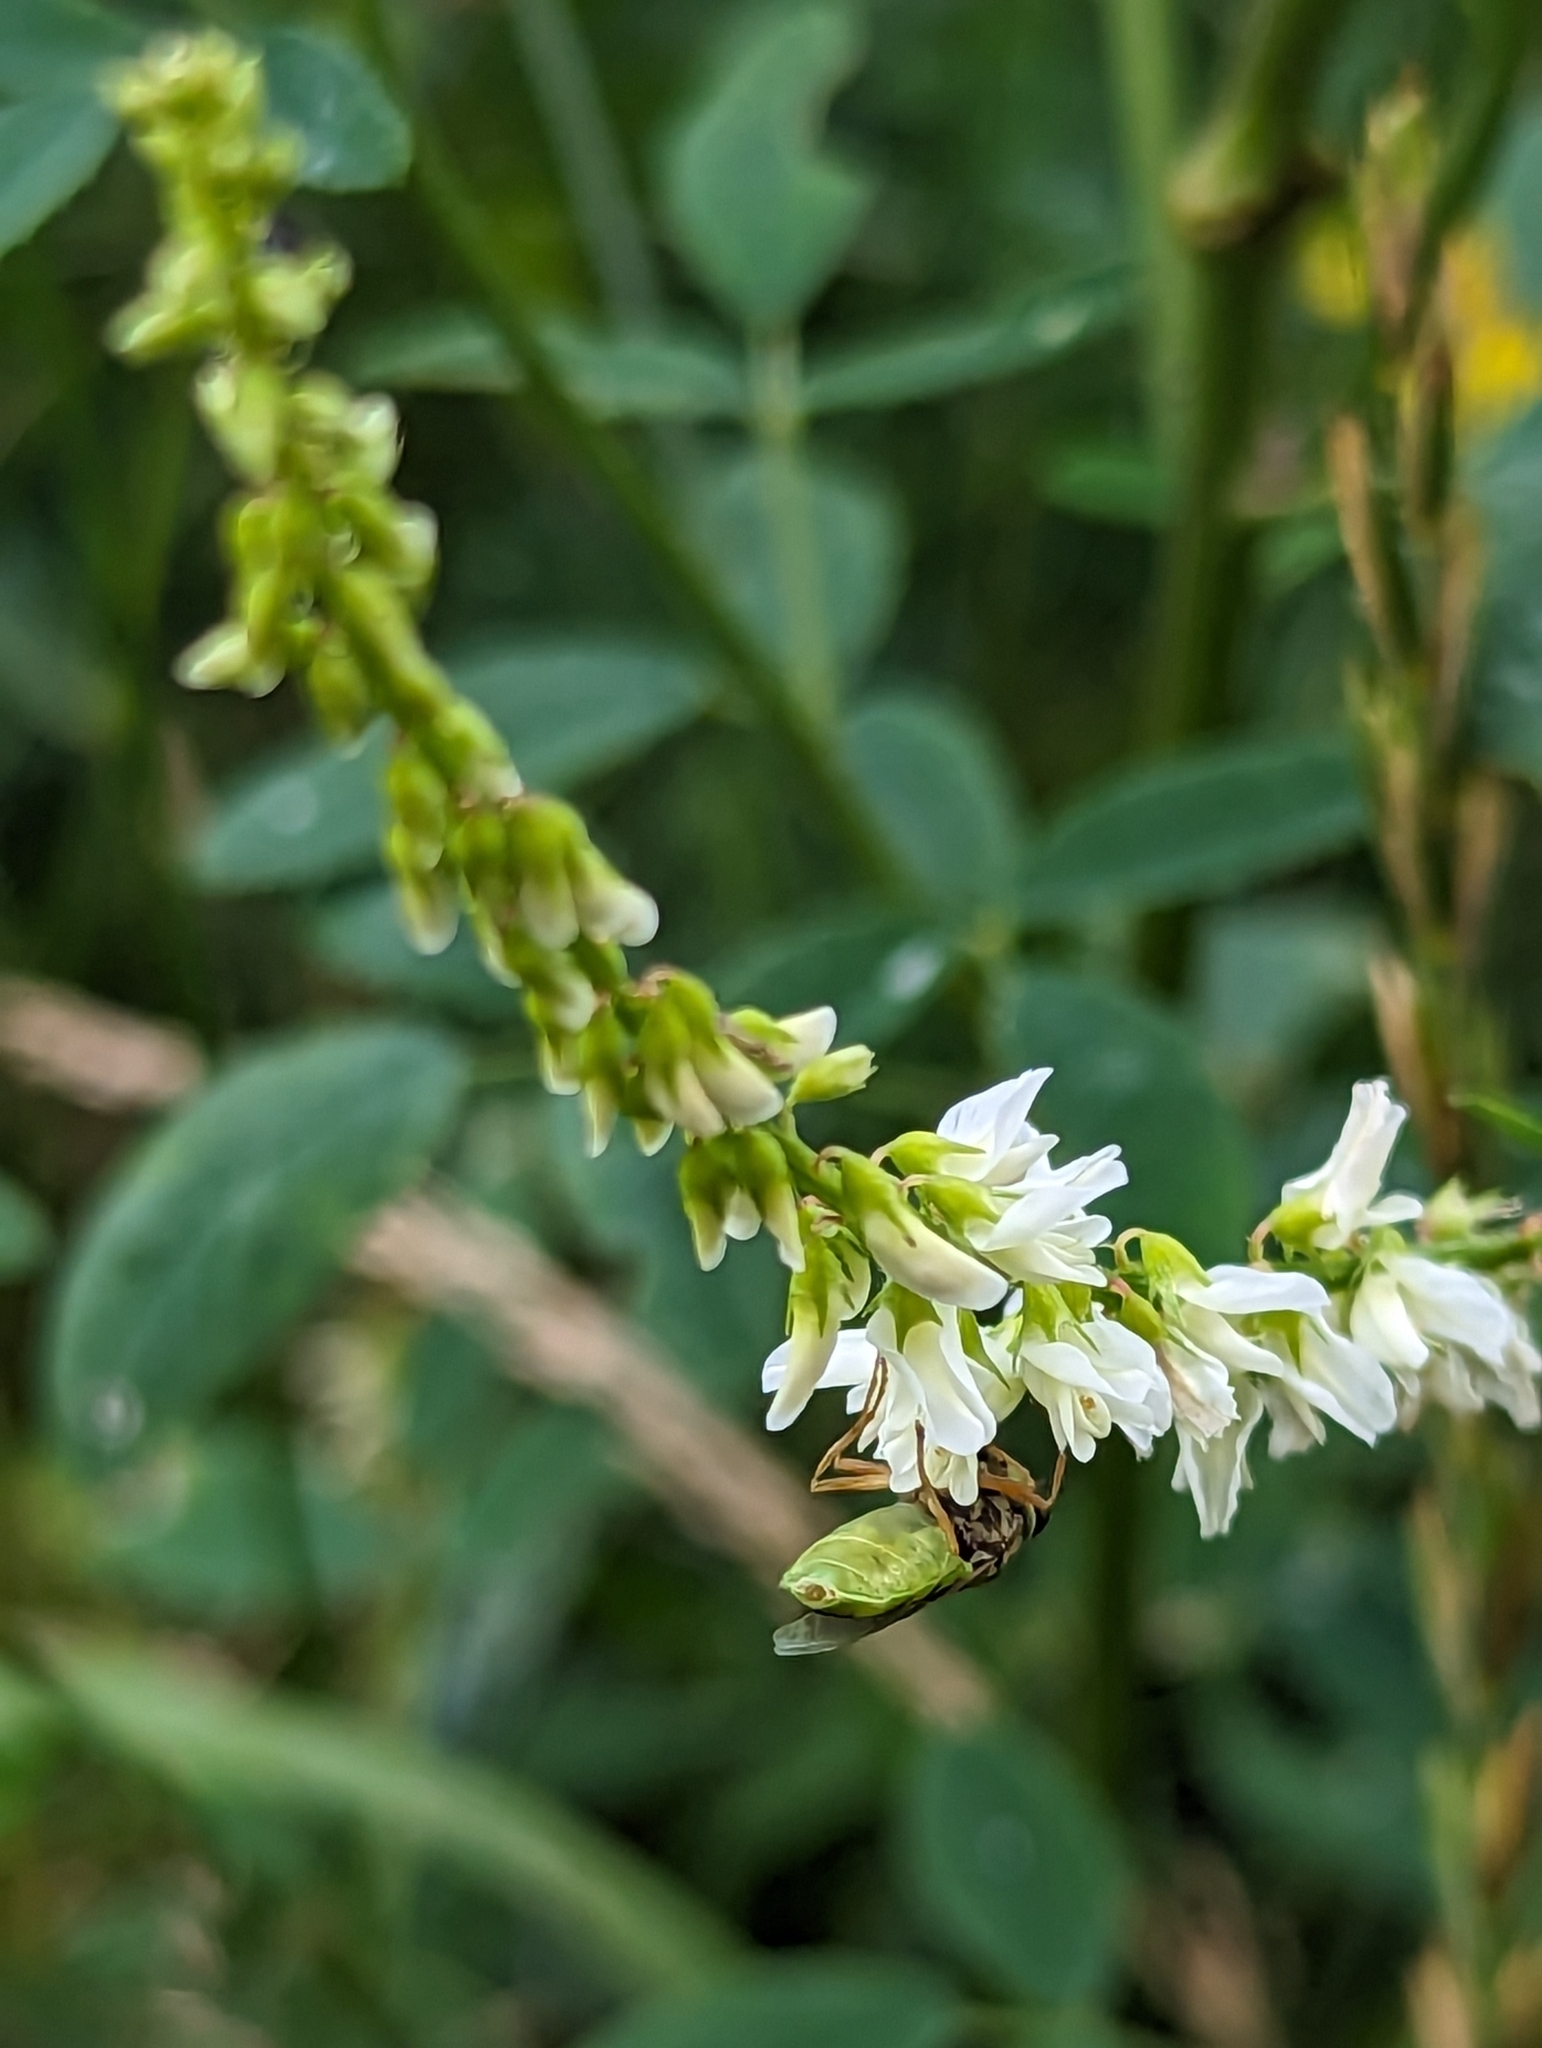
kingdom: Animalia
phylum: Arthropoda
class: Insecta
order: Diptera
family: Stratiomyidae
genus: Hedriodiscus
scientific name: Hedriodiscus vertebratus
